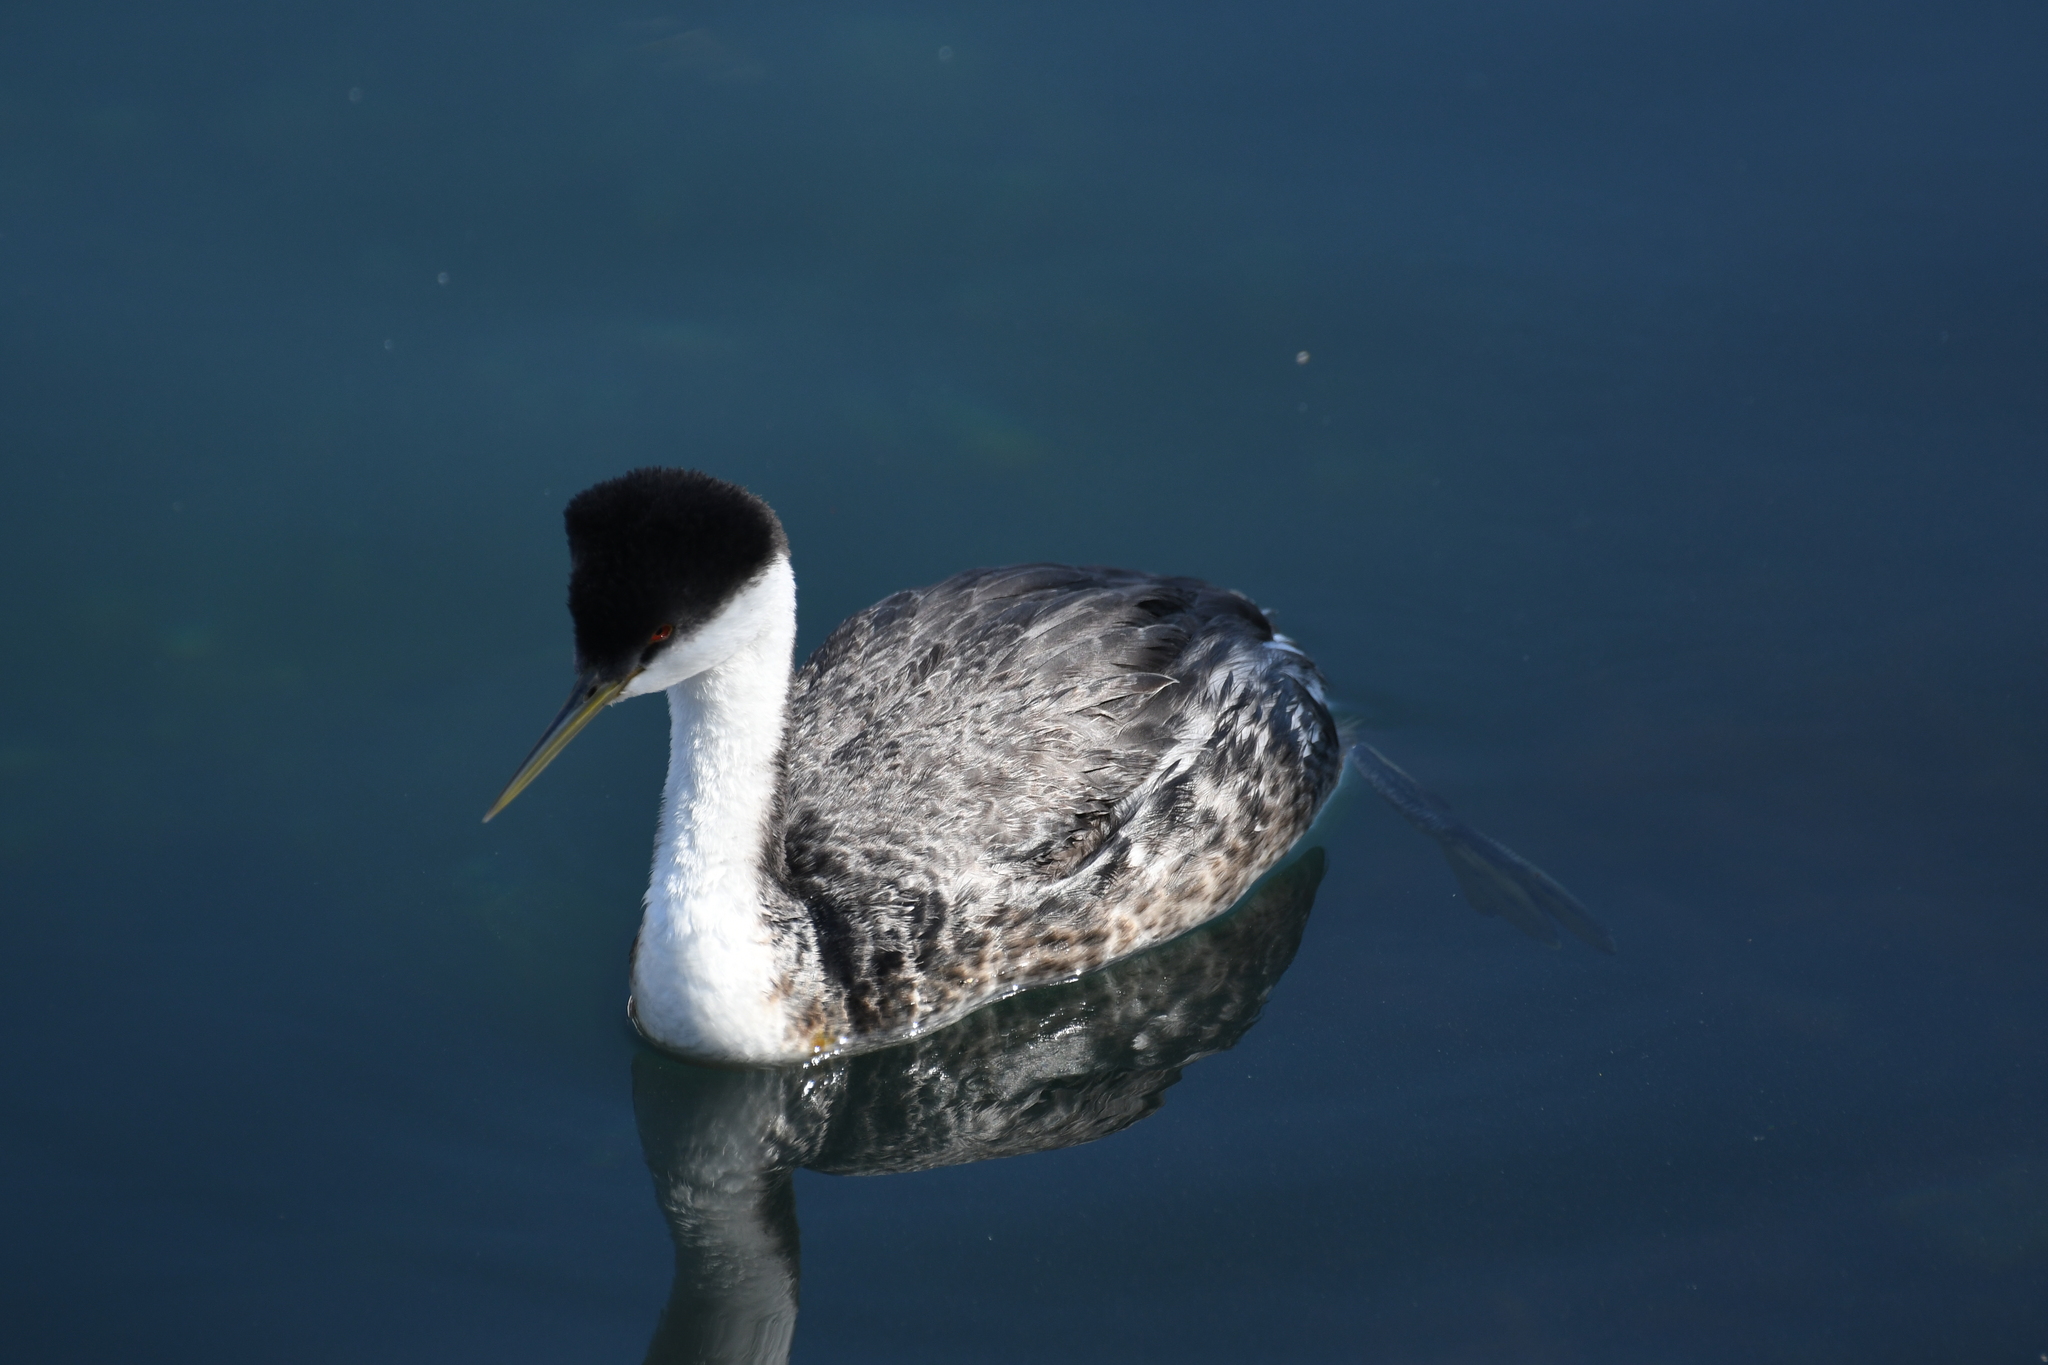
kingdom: Animalia
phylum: Chordata
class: Aves
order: Podicipediformes
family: Podicipedidae
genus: Aechmophorus
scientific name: Aechmophorus occidentalis
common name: Western grebe
